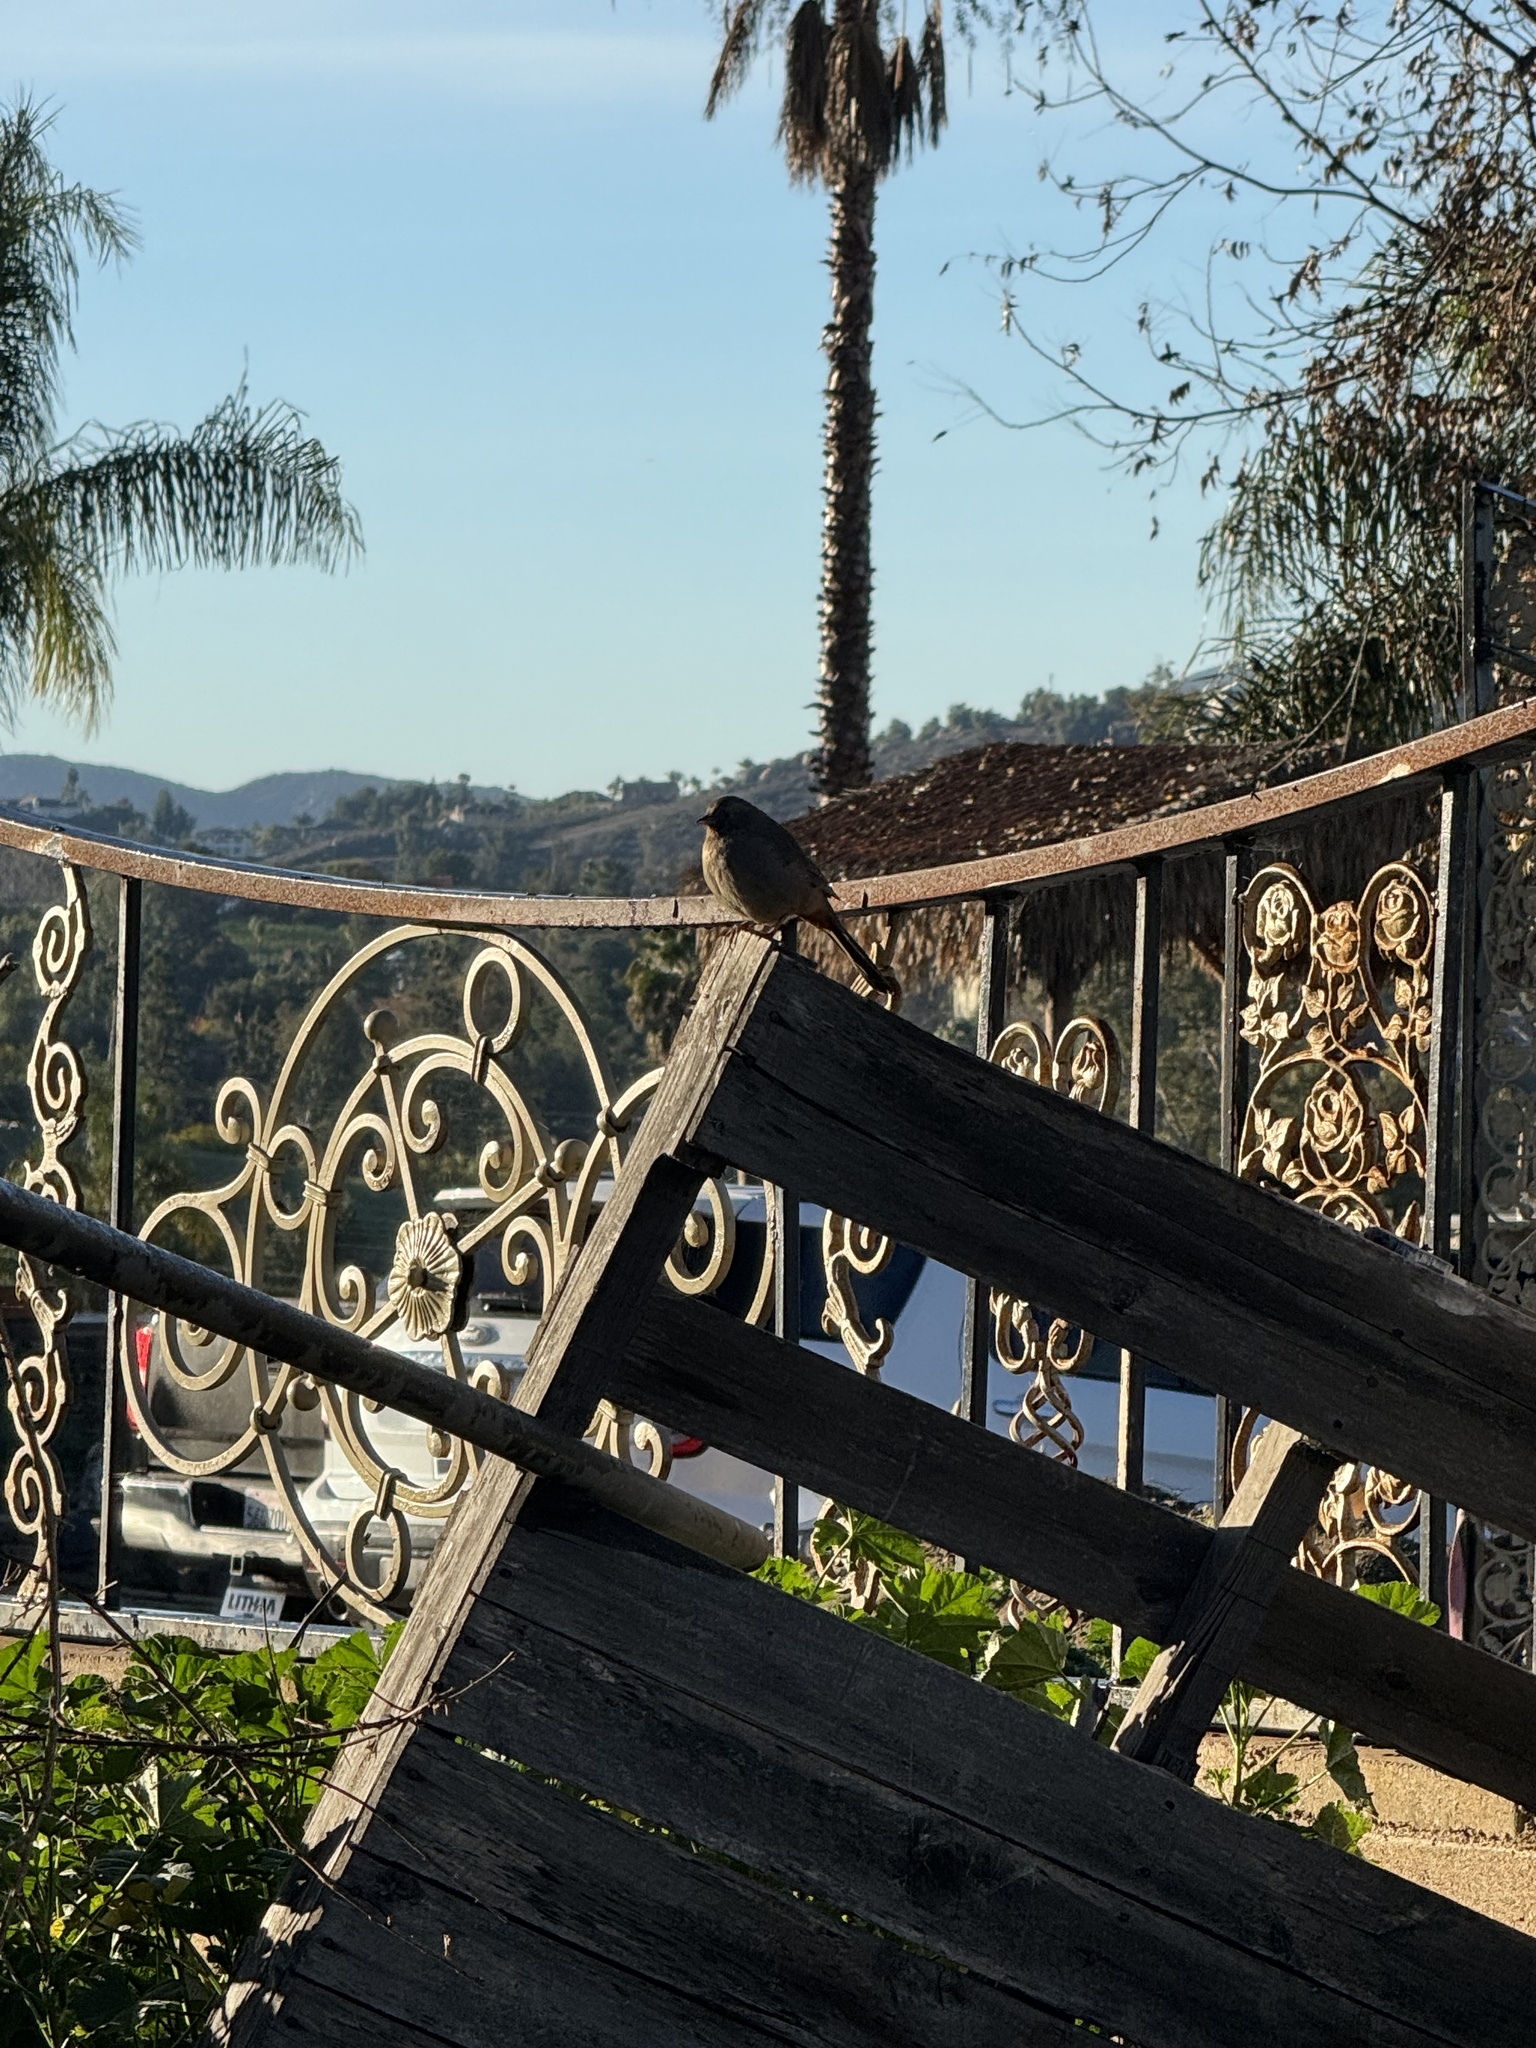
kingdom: Animalia
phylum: Chordata
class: Aves
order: Passeriformes
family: Passerellidae
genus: Melozone
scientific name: Melozone crissalis
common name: California towhee
